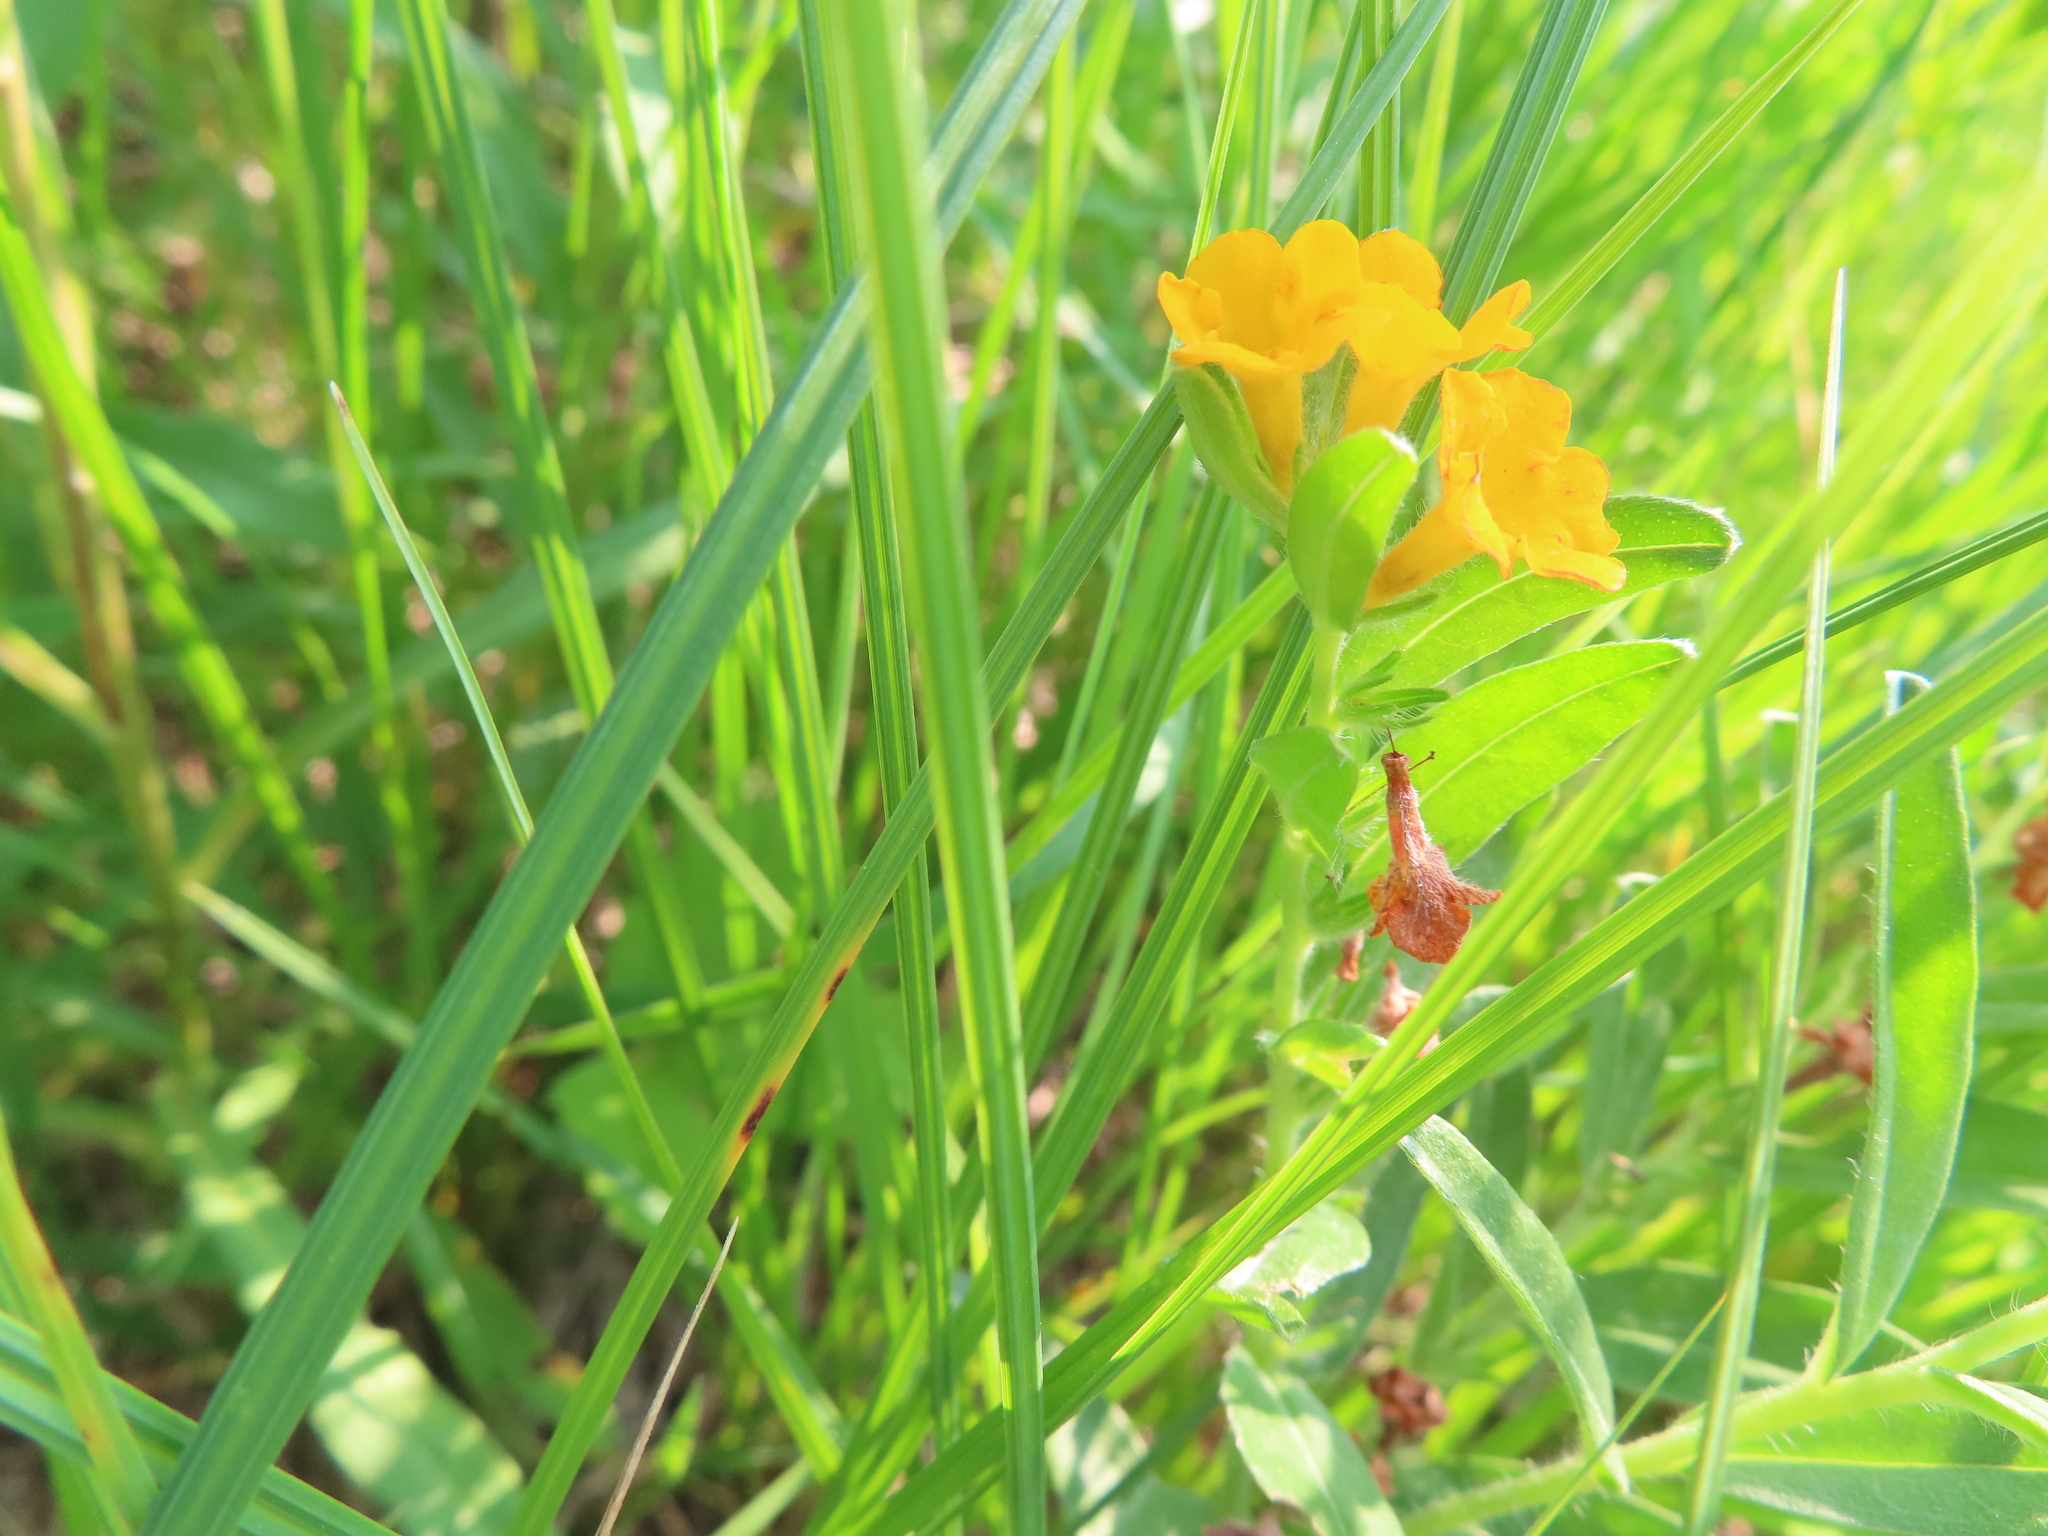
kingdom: Plantae
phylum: Tracheophyta
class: Magnoliopsida
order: Boraginales
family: Boraginaceae
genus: Lithospermum
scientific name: Lithospermum canescens
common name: Hoary puccoon
